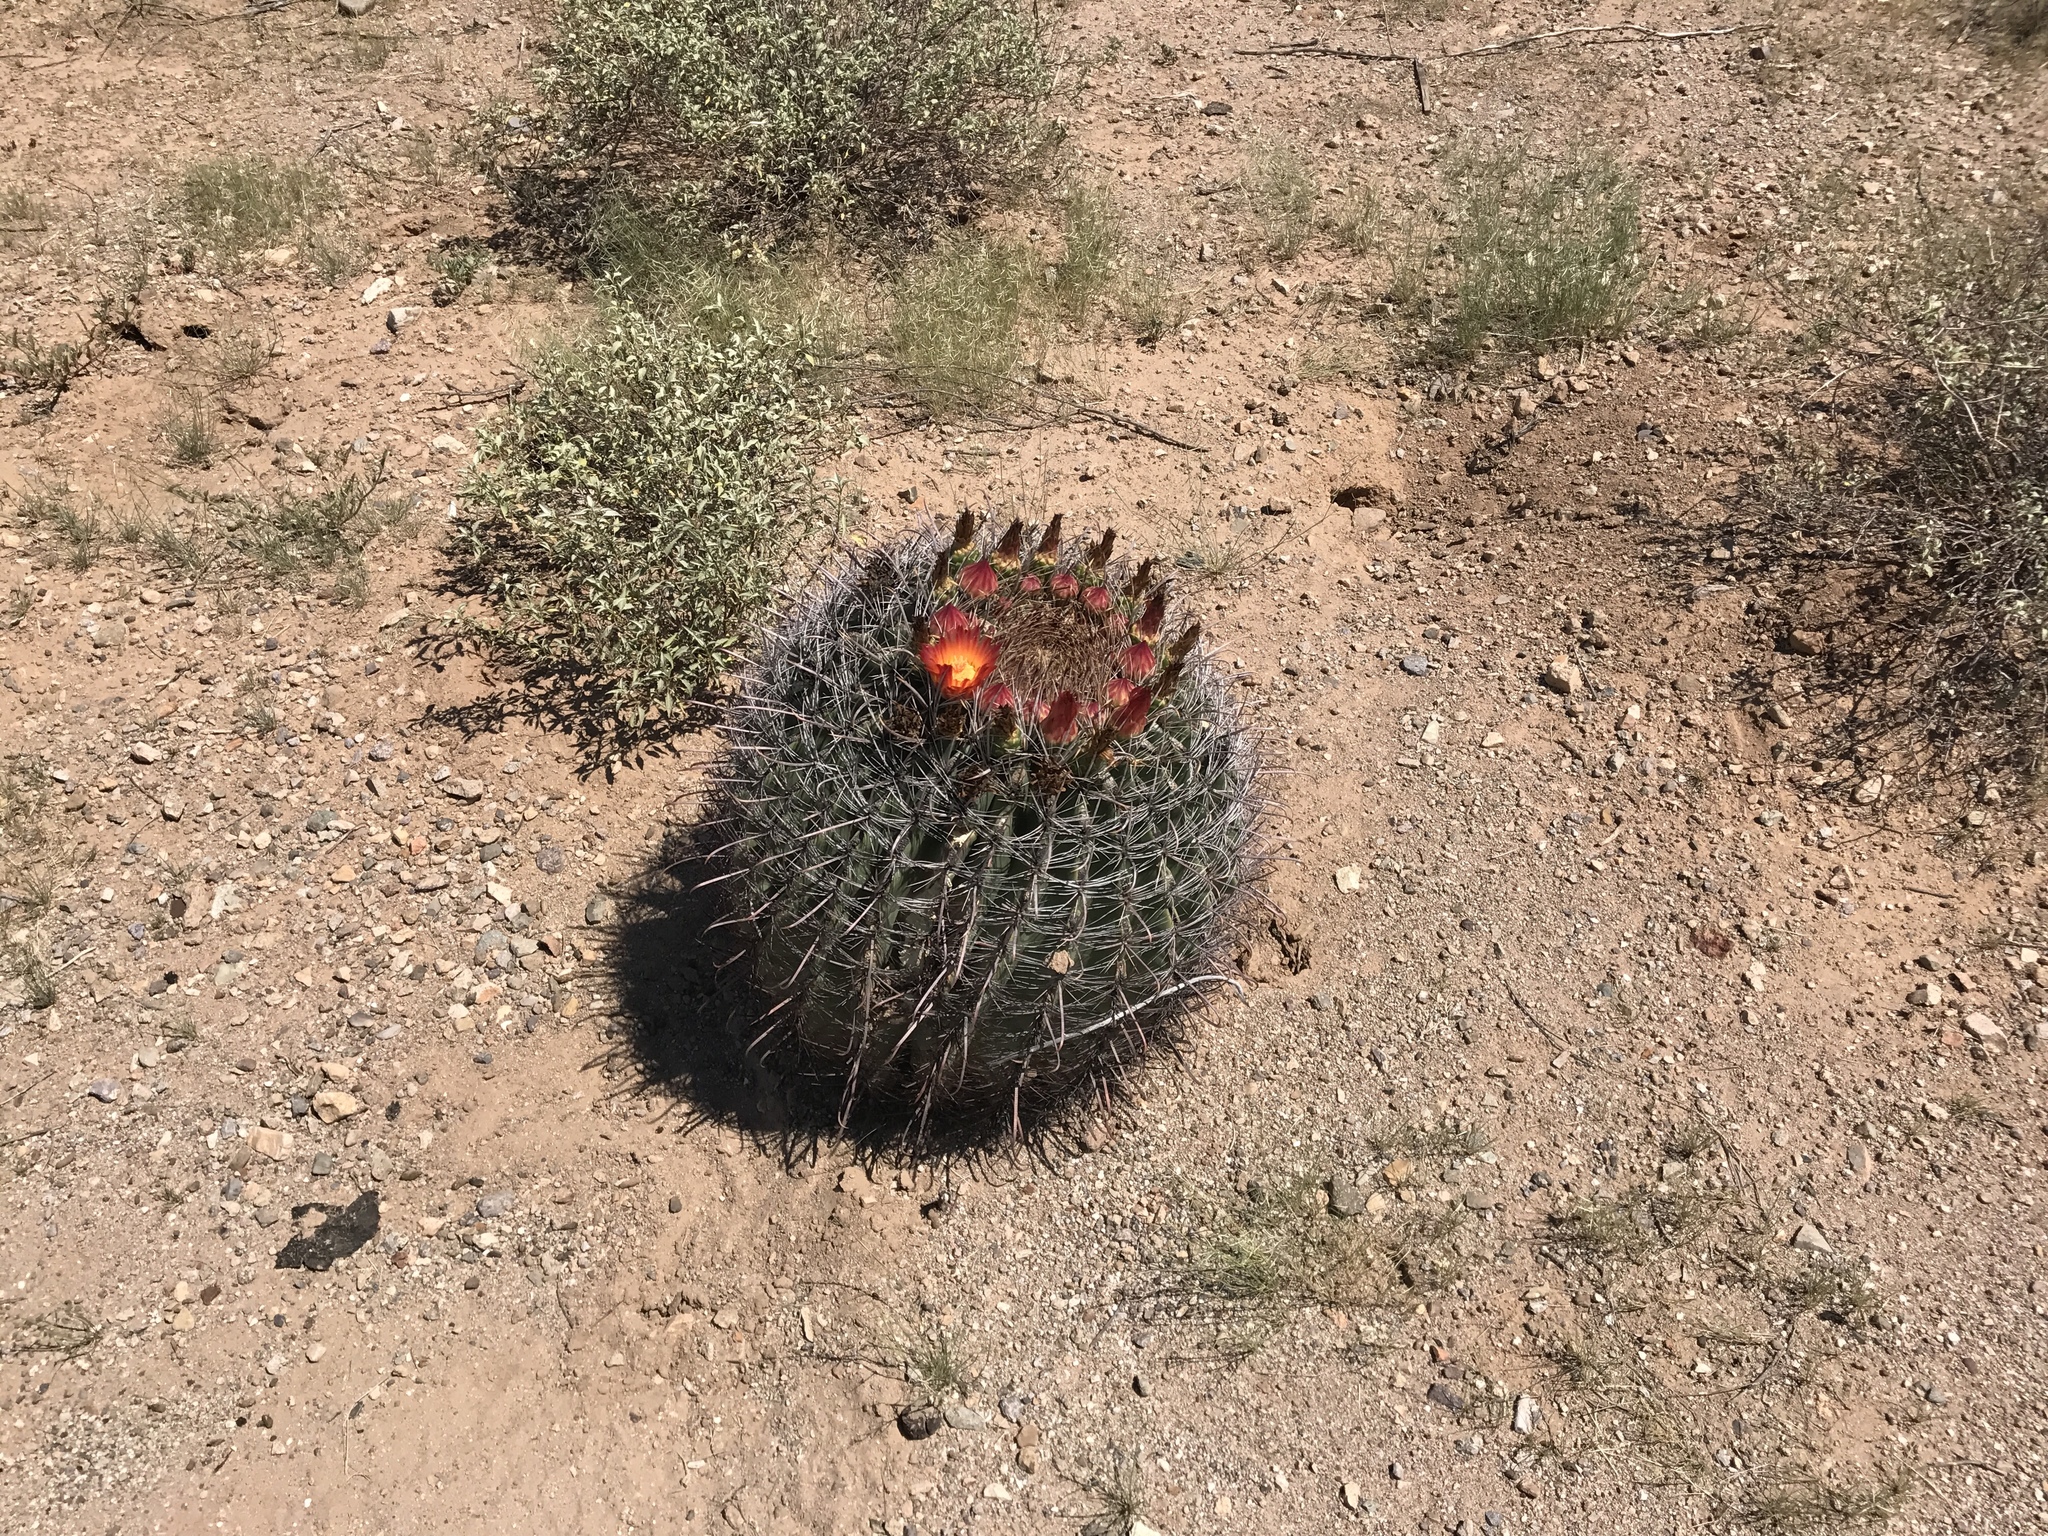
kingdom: Plantae
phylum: Tracheophyta
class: Magnoliopsida
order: Caryophyllales
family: Cactaceae
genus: Ferocactus
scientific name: Ferocactus wislizeni
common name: Candy barrel cactus
